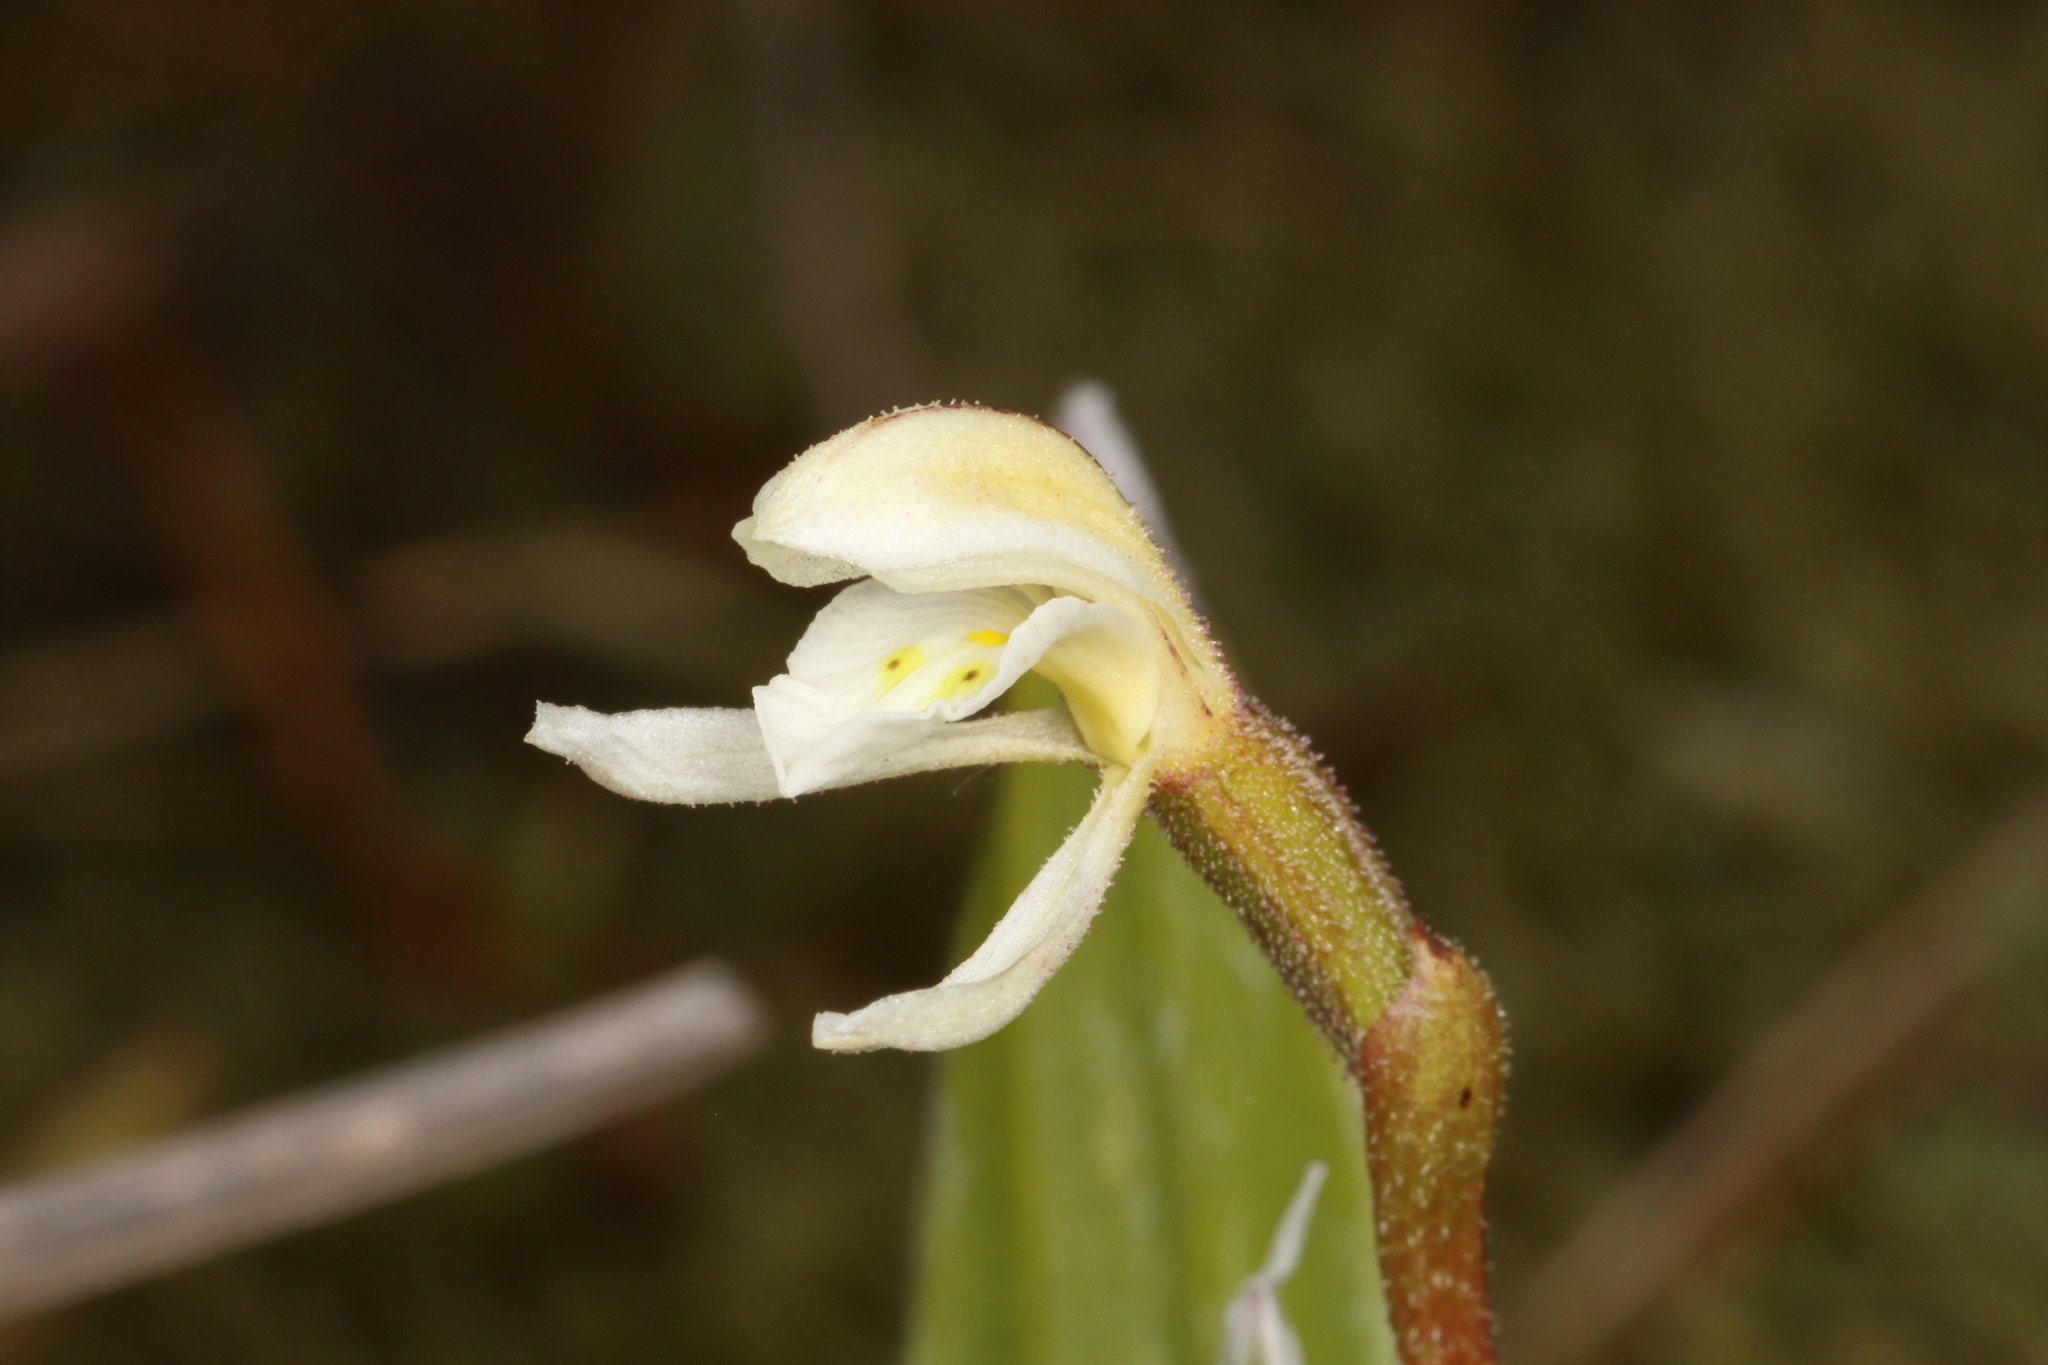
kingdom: Plantae
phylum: Tracheophyta
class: Liliopsida
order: Asparagales
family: Orchidaceae
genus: Aporostylis
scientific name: Aporostylis bifolia
